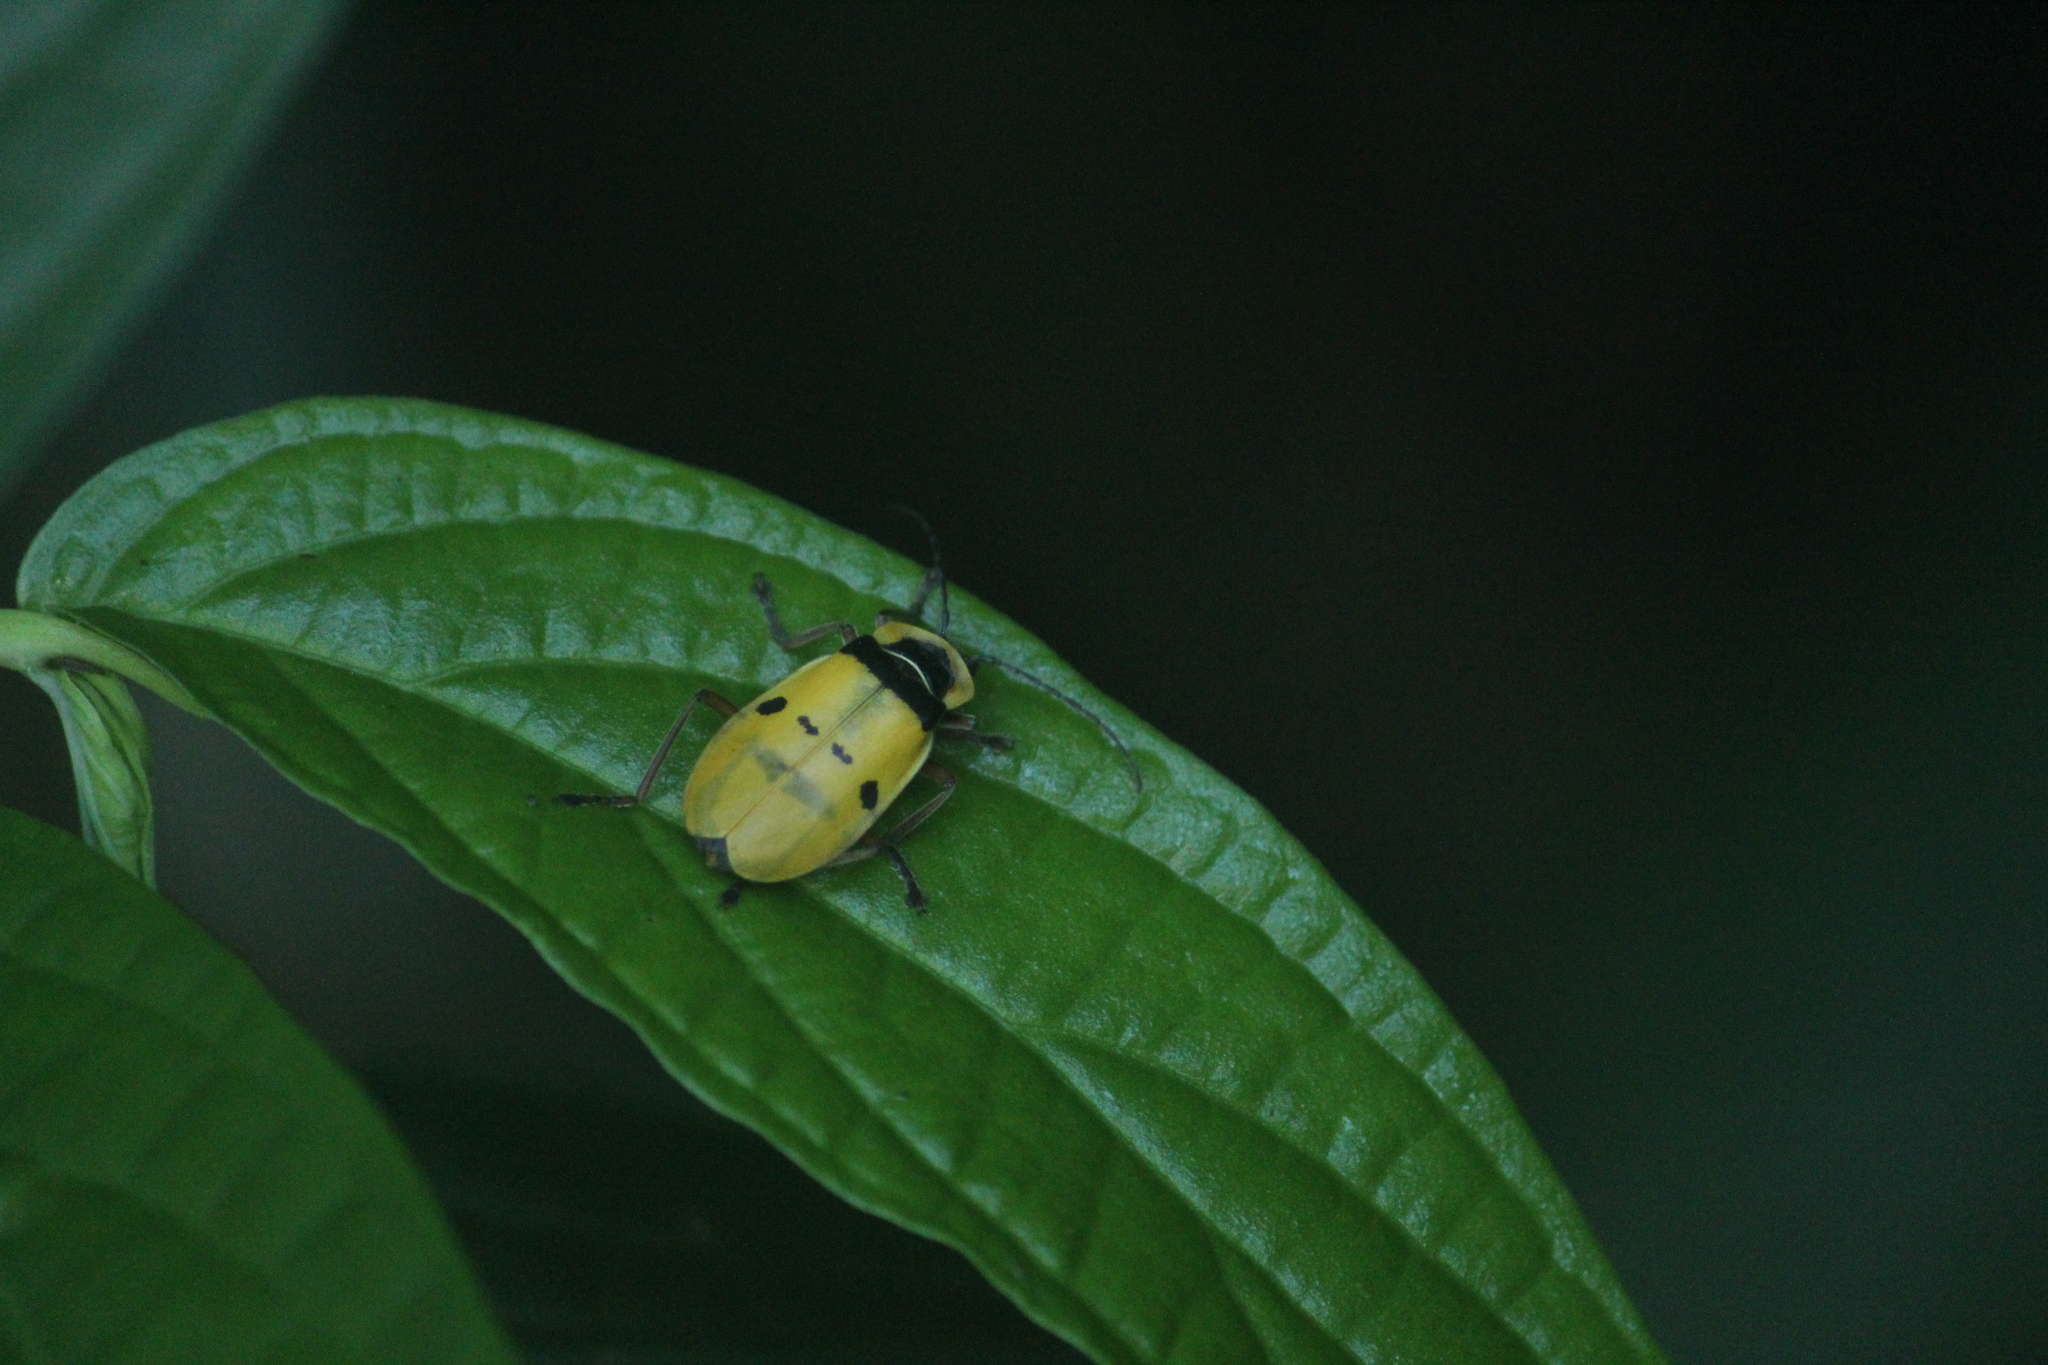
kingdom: Animalia
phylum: Arthropoda
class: Insecta
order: Coleoptera
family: Cantharidae
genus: Chauliognathus
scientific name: Chauliognathus
